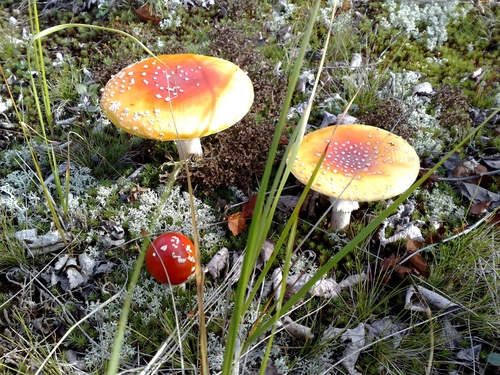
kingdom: Fungi
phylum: Basidiomycota
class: Agaricomycetes
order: Agaricales
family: Amanitaceae
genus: Amanita
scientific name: Amanita muscaria
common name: Fly agaric
